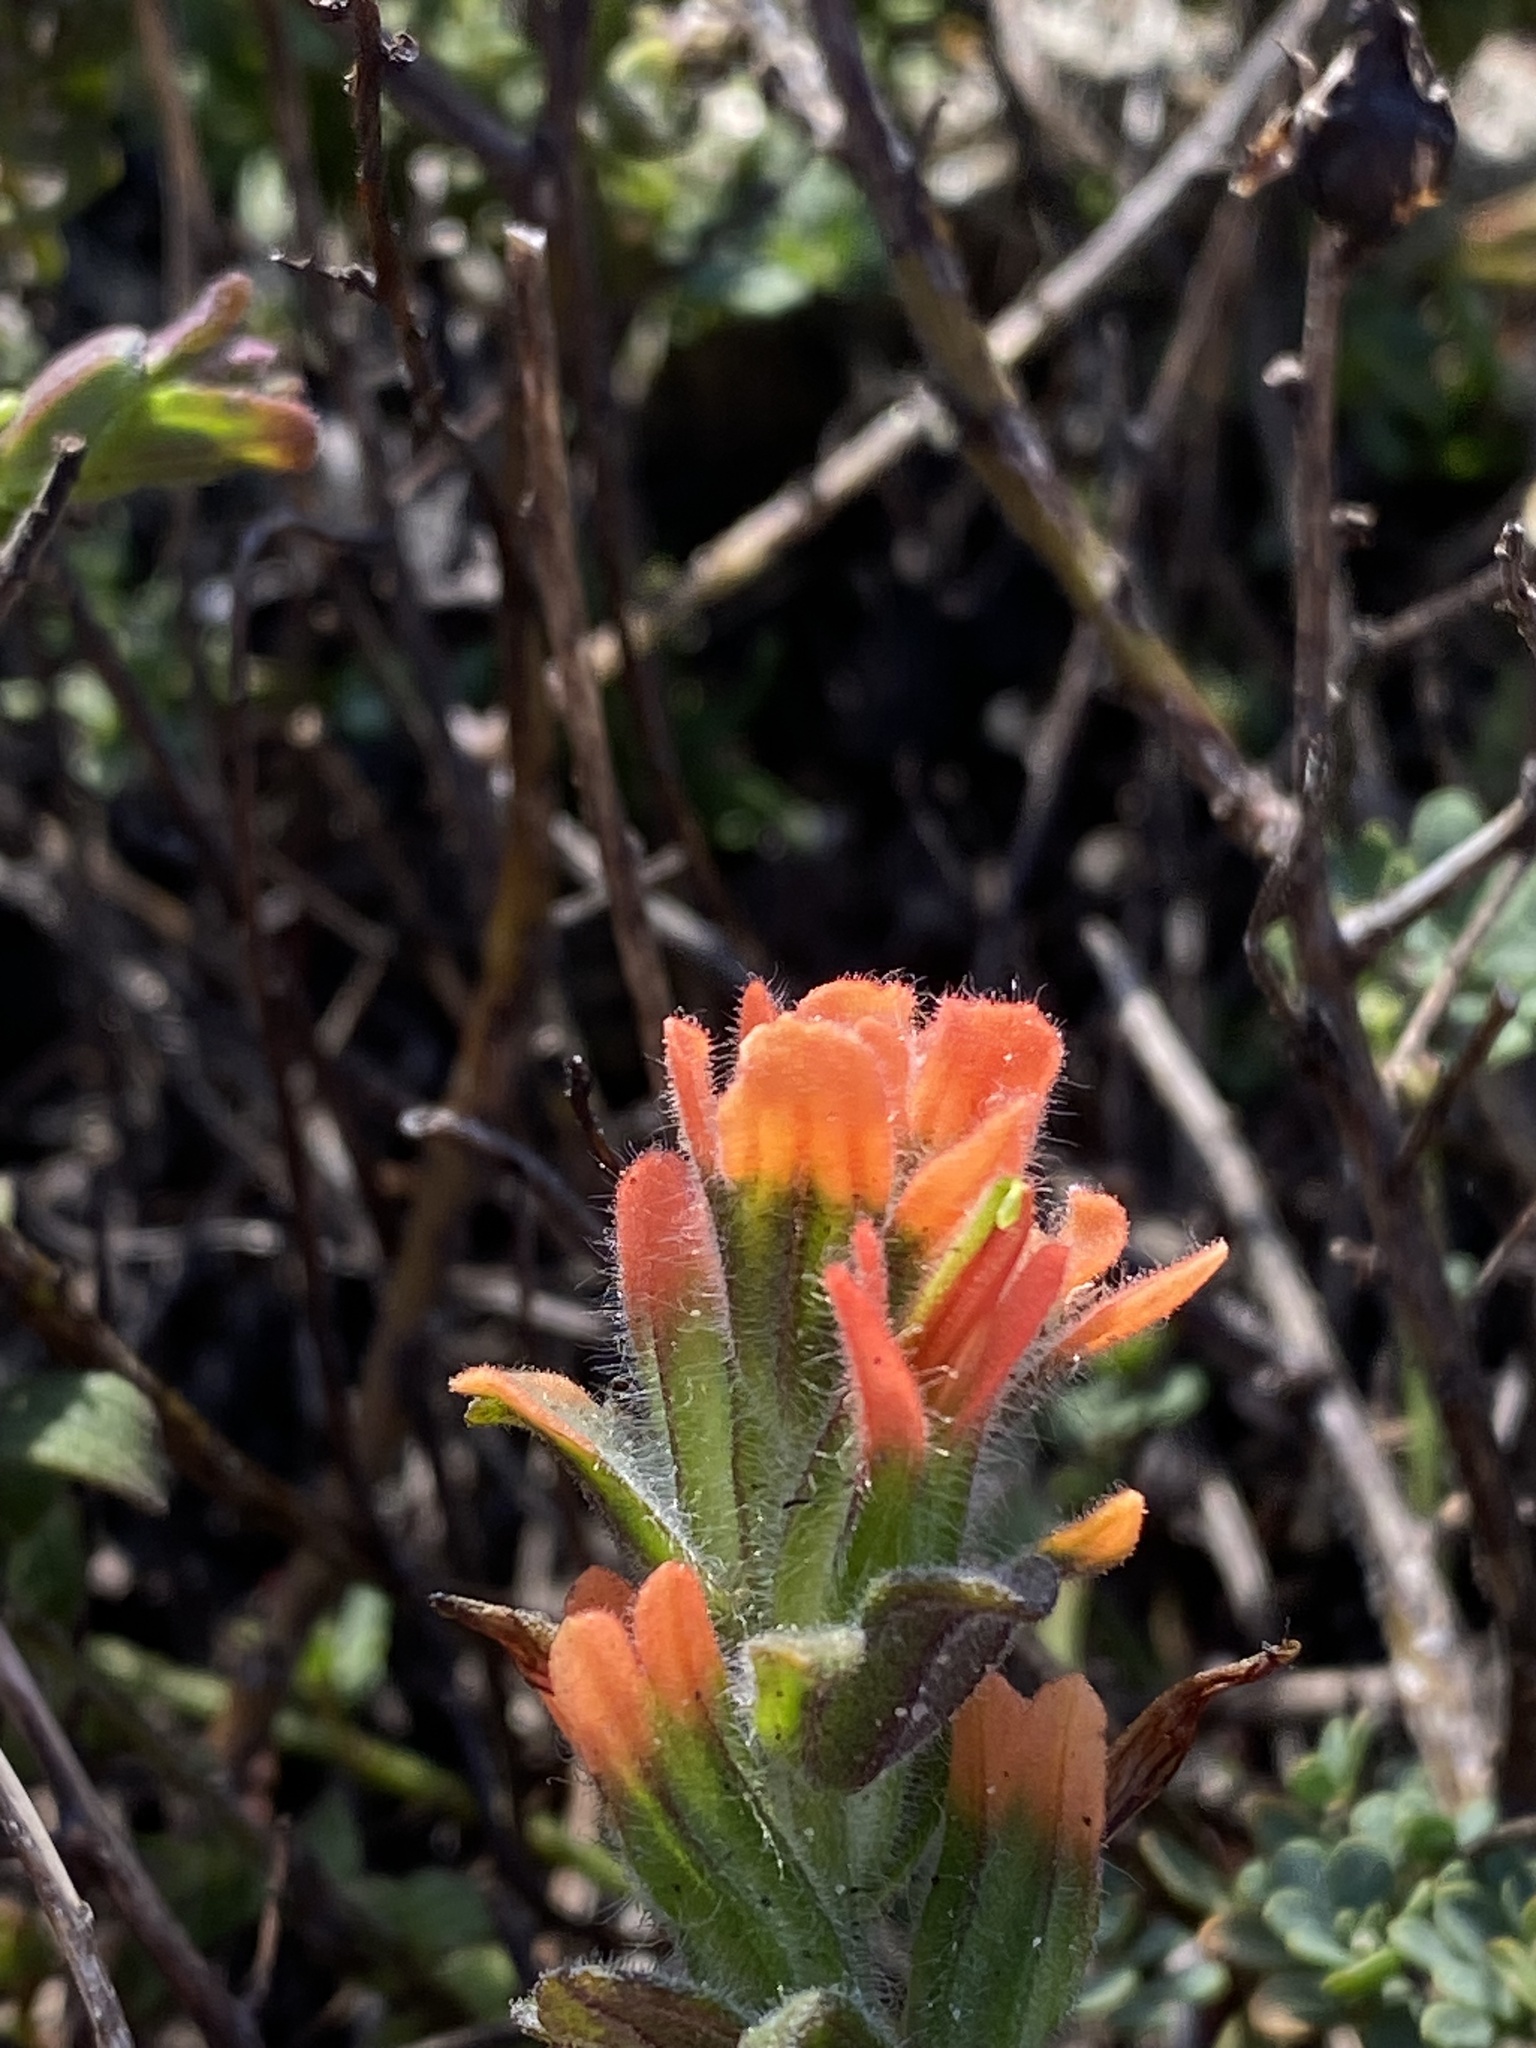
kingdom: Plantae
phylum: Tracheophyta
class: Magnoliopsida
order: Lamiales
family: Orobanchaceae
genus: Castilleja
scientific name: Castilleja latifolia
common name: Monterey indian paintbrush
